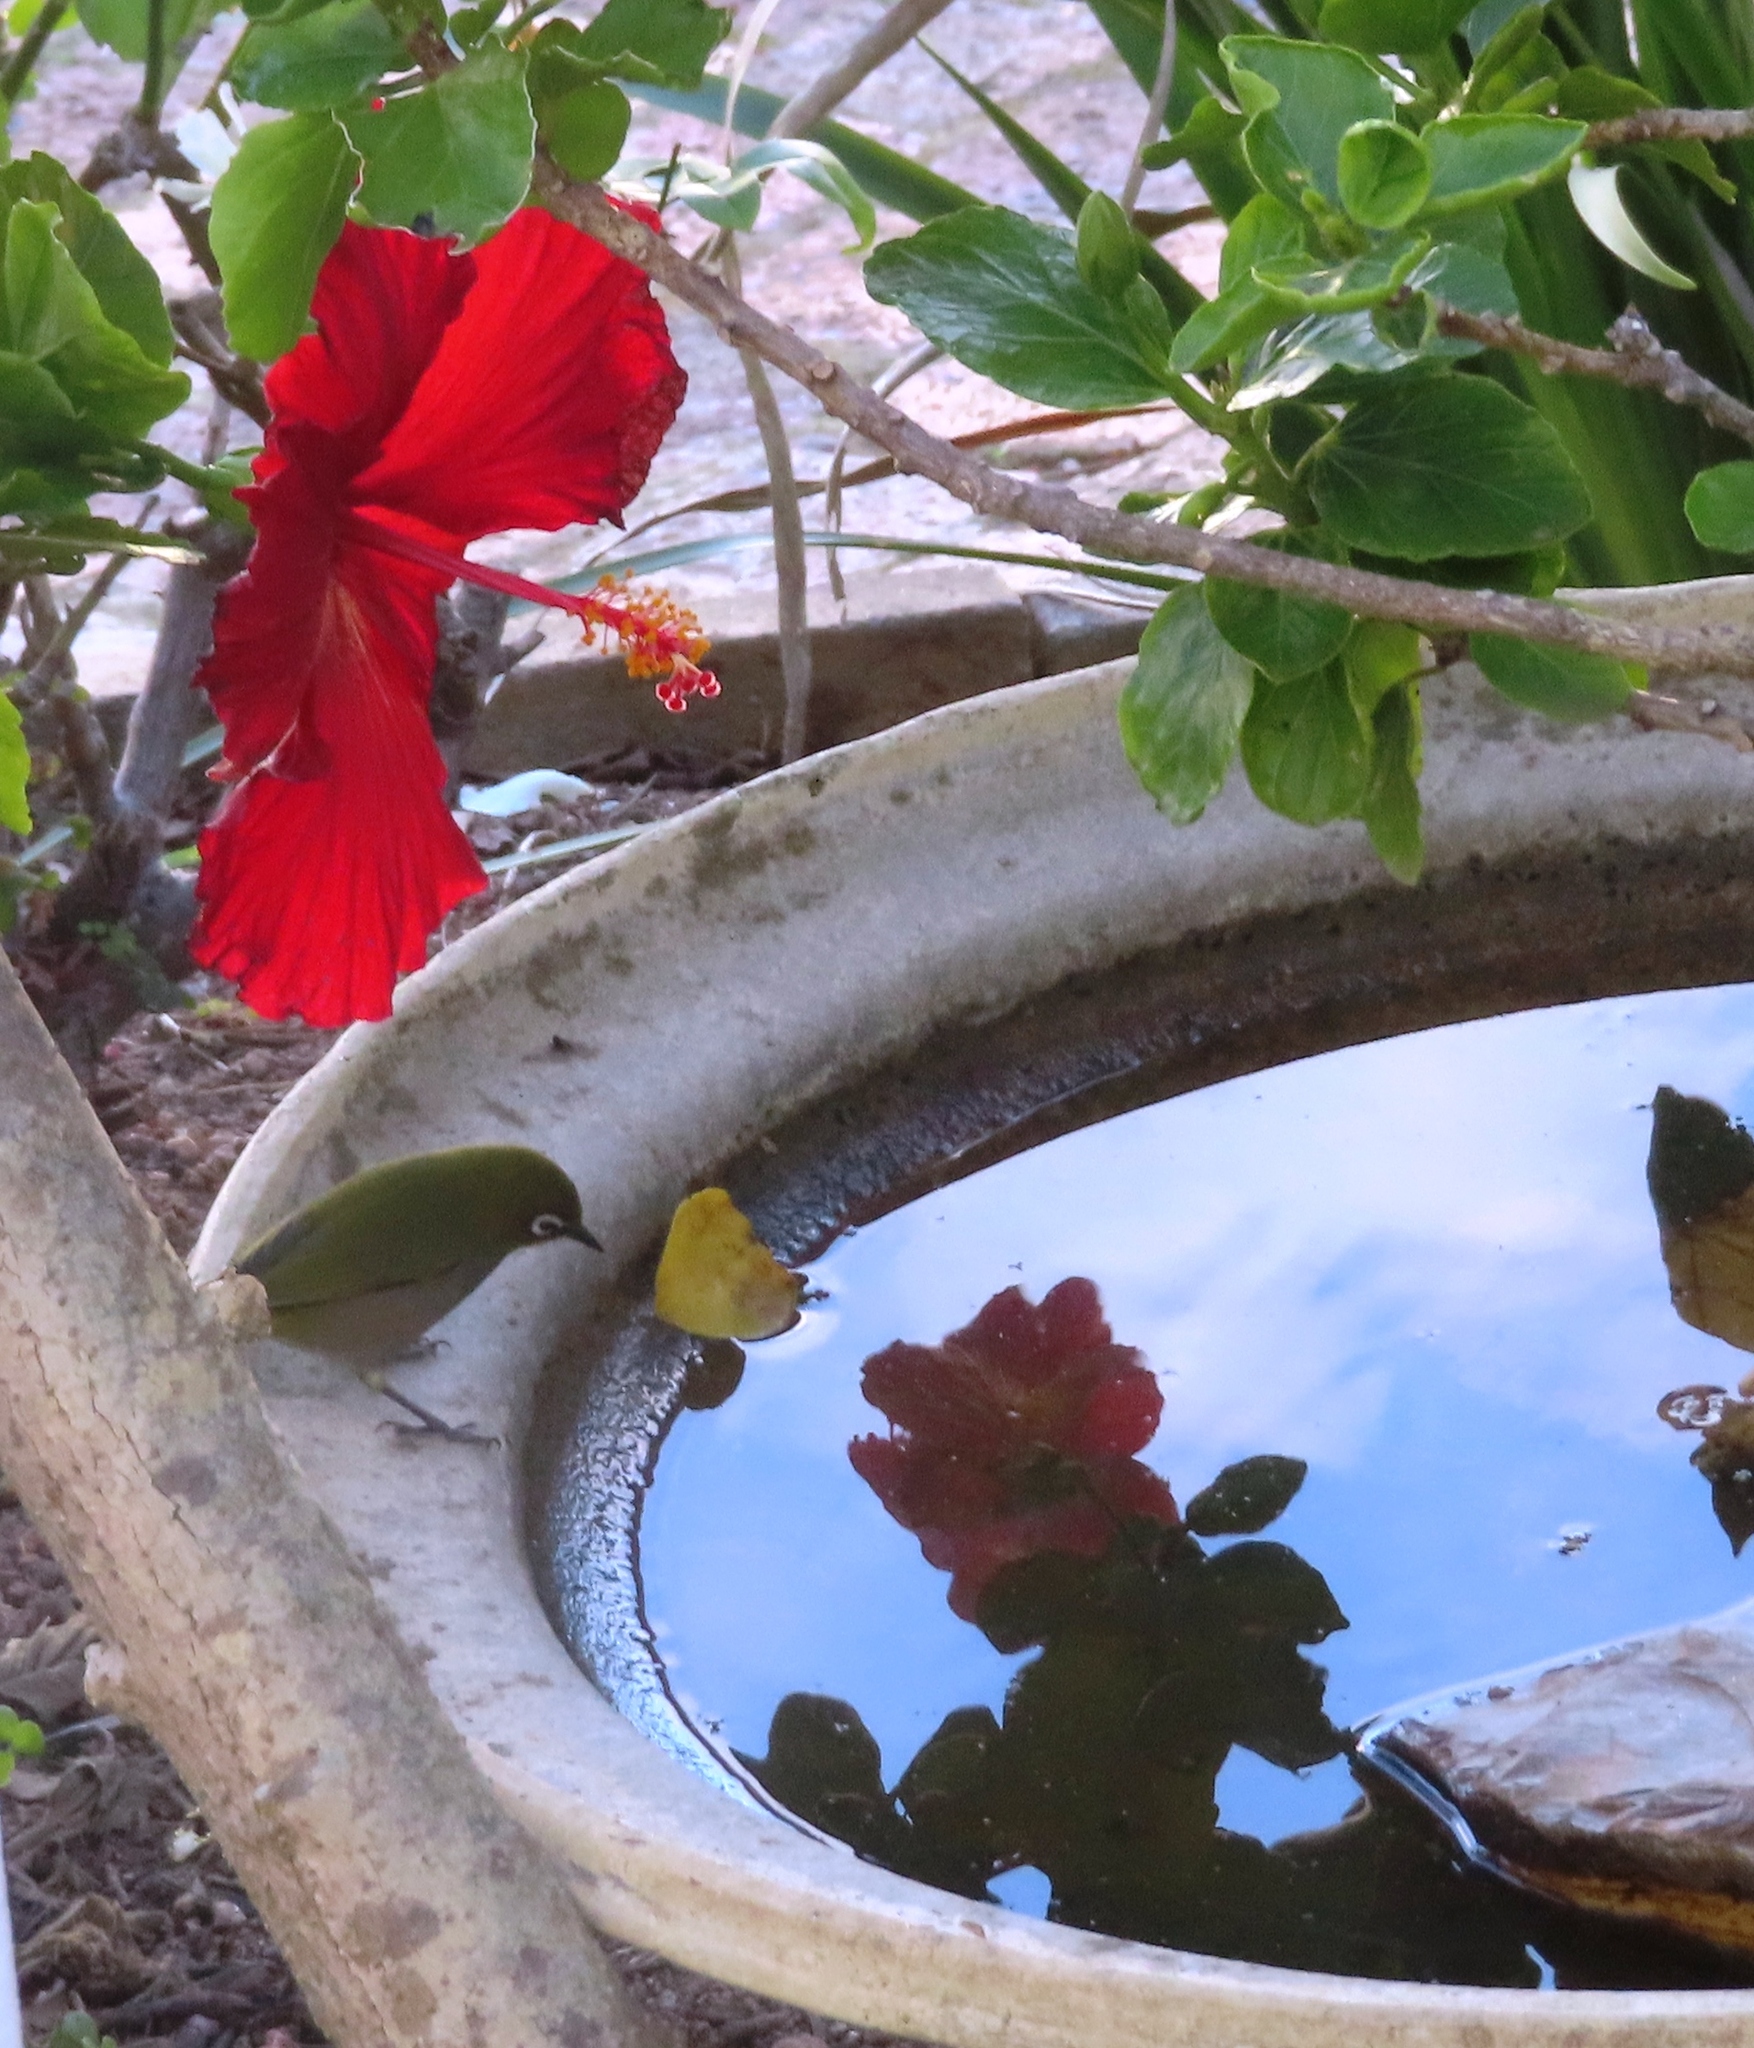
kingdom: Animalia
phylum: Chordata
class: Aves
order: Passeriformes
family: Zosteropidae
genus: Zosterops
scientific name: Zosterops virens
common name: Cape white-eye
